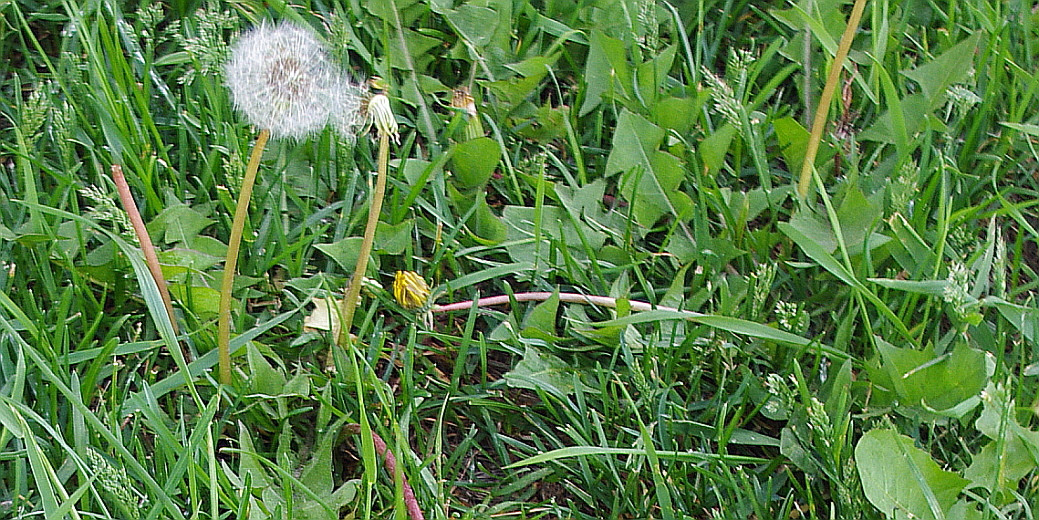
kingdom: Plantae
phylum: Tracheophyta
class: Magnoliopsida
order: Asterales
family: Asteraceae
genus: Taraxacum
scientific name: Taraxacum officinale
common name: Common dandelion
